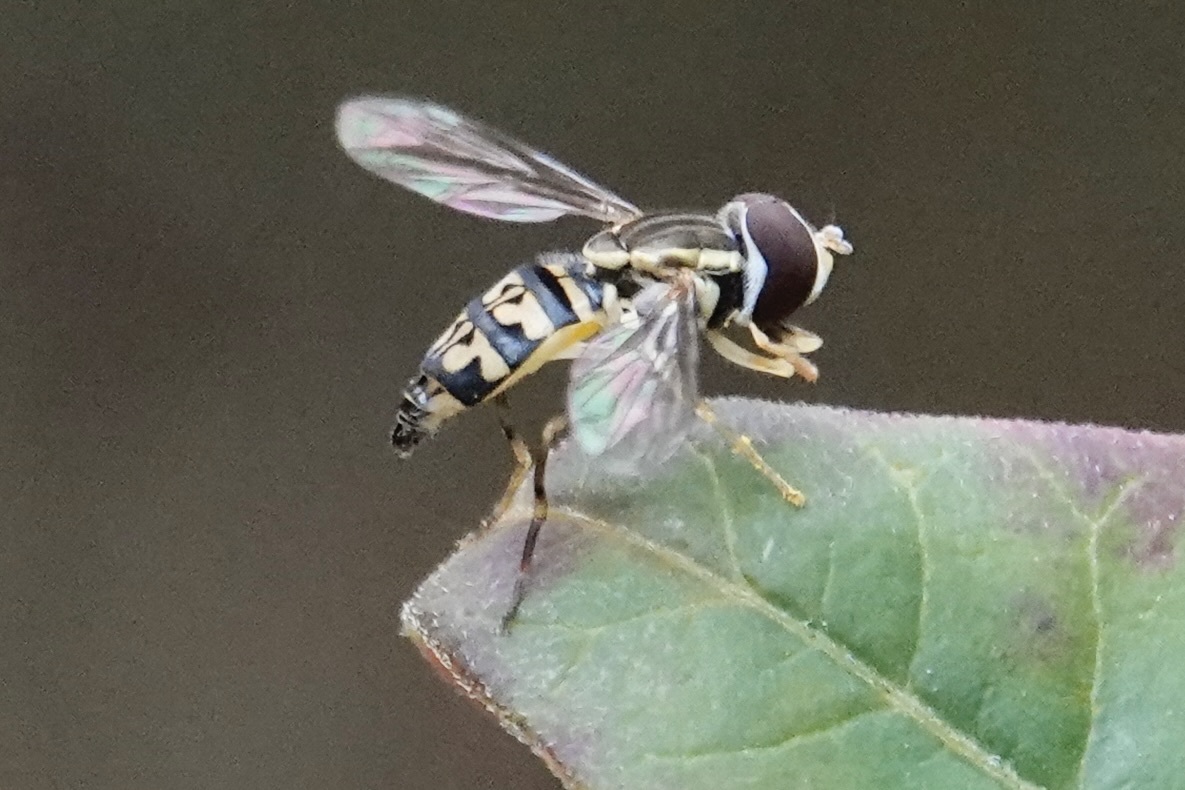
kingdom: Animalia
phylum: Arthropoda
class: Insecta
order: Diptera
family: Syrphidae
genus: Toxomerus
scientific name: Toxomerus geminatus
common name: Eastern calligrapher
